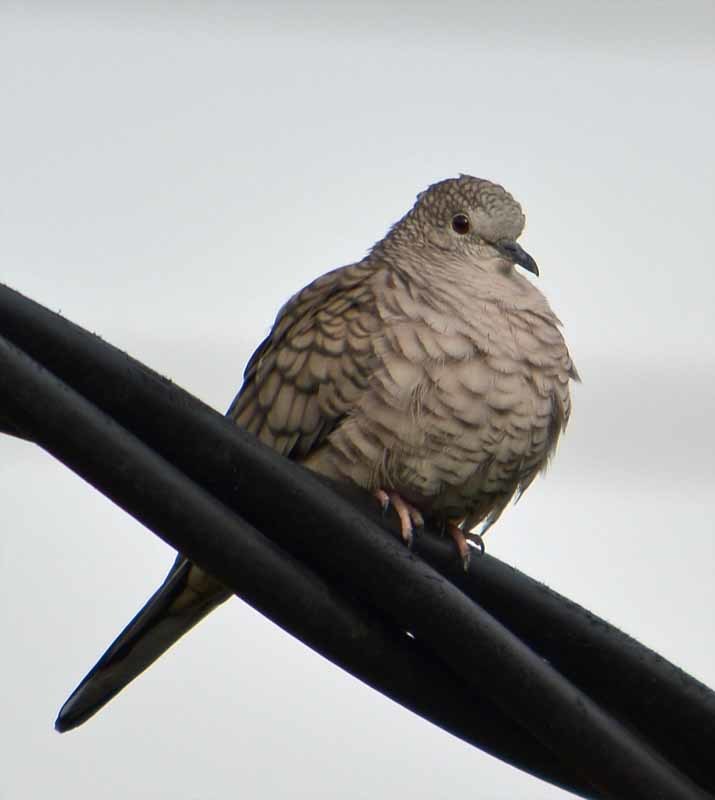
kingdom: Animalia
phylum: Chordata
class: Aves
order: Columbiformes
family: Columbidae
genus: Columbina
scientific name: Columbina inca
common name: Inca dove
